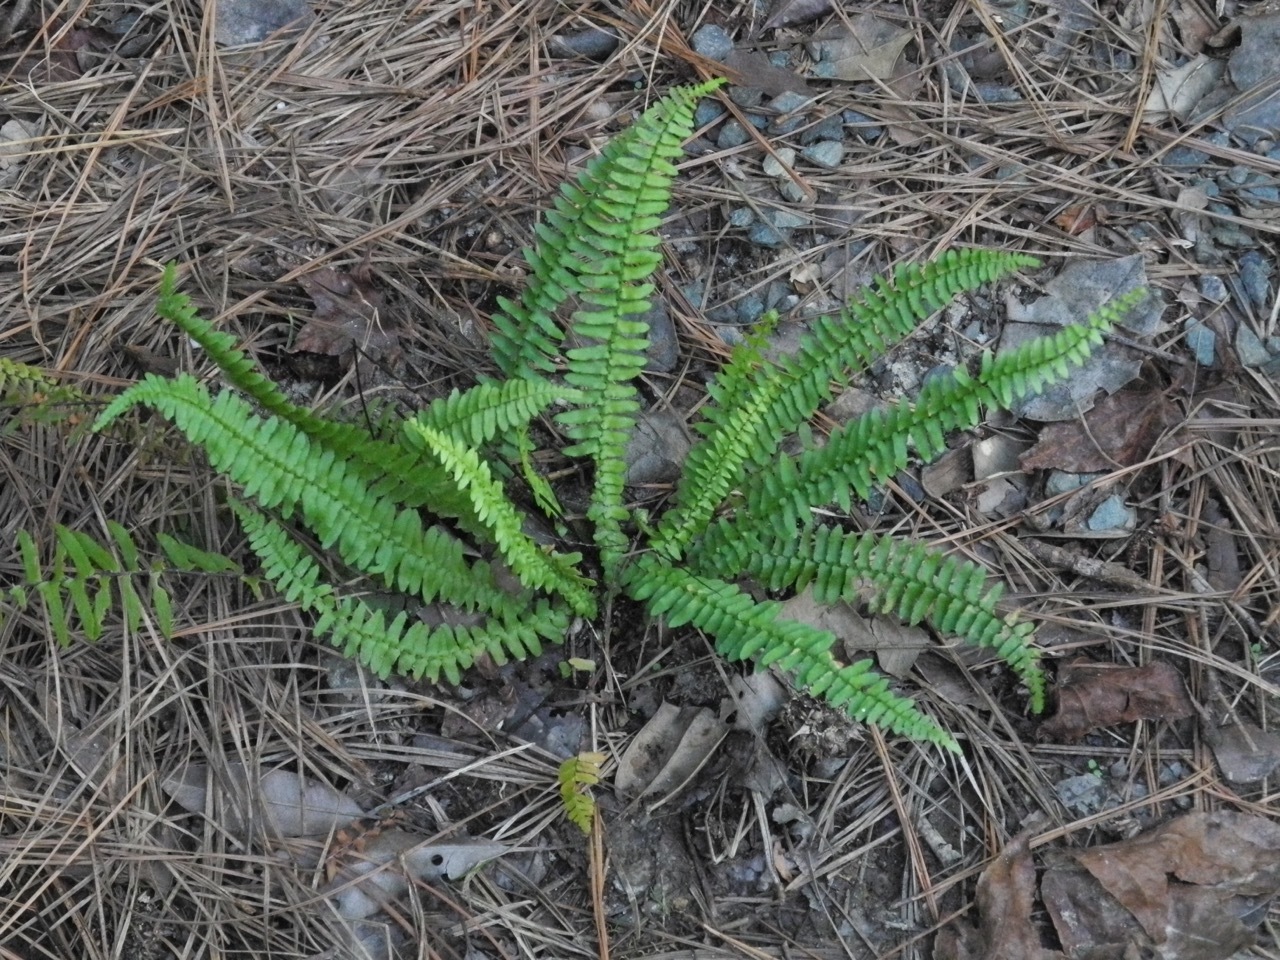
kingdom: Plantae
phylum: Tracheophyta
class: Polypodiopsida
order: Polypodiales
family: Aspleniaceae
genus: Asplenium
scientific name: Asplenium platyneuron
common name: Ebony spleenwort
